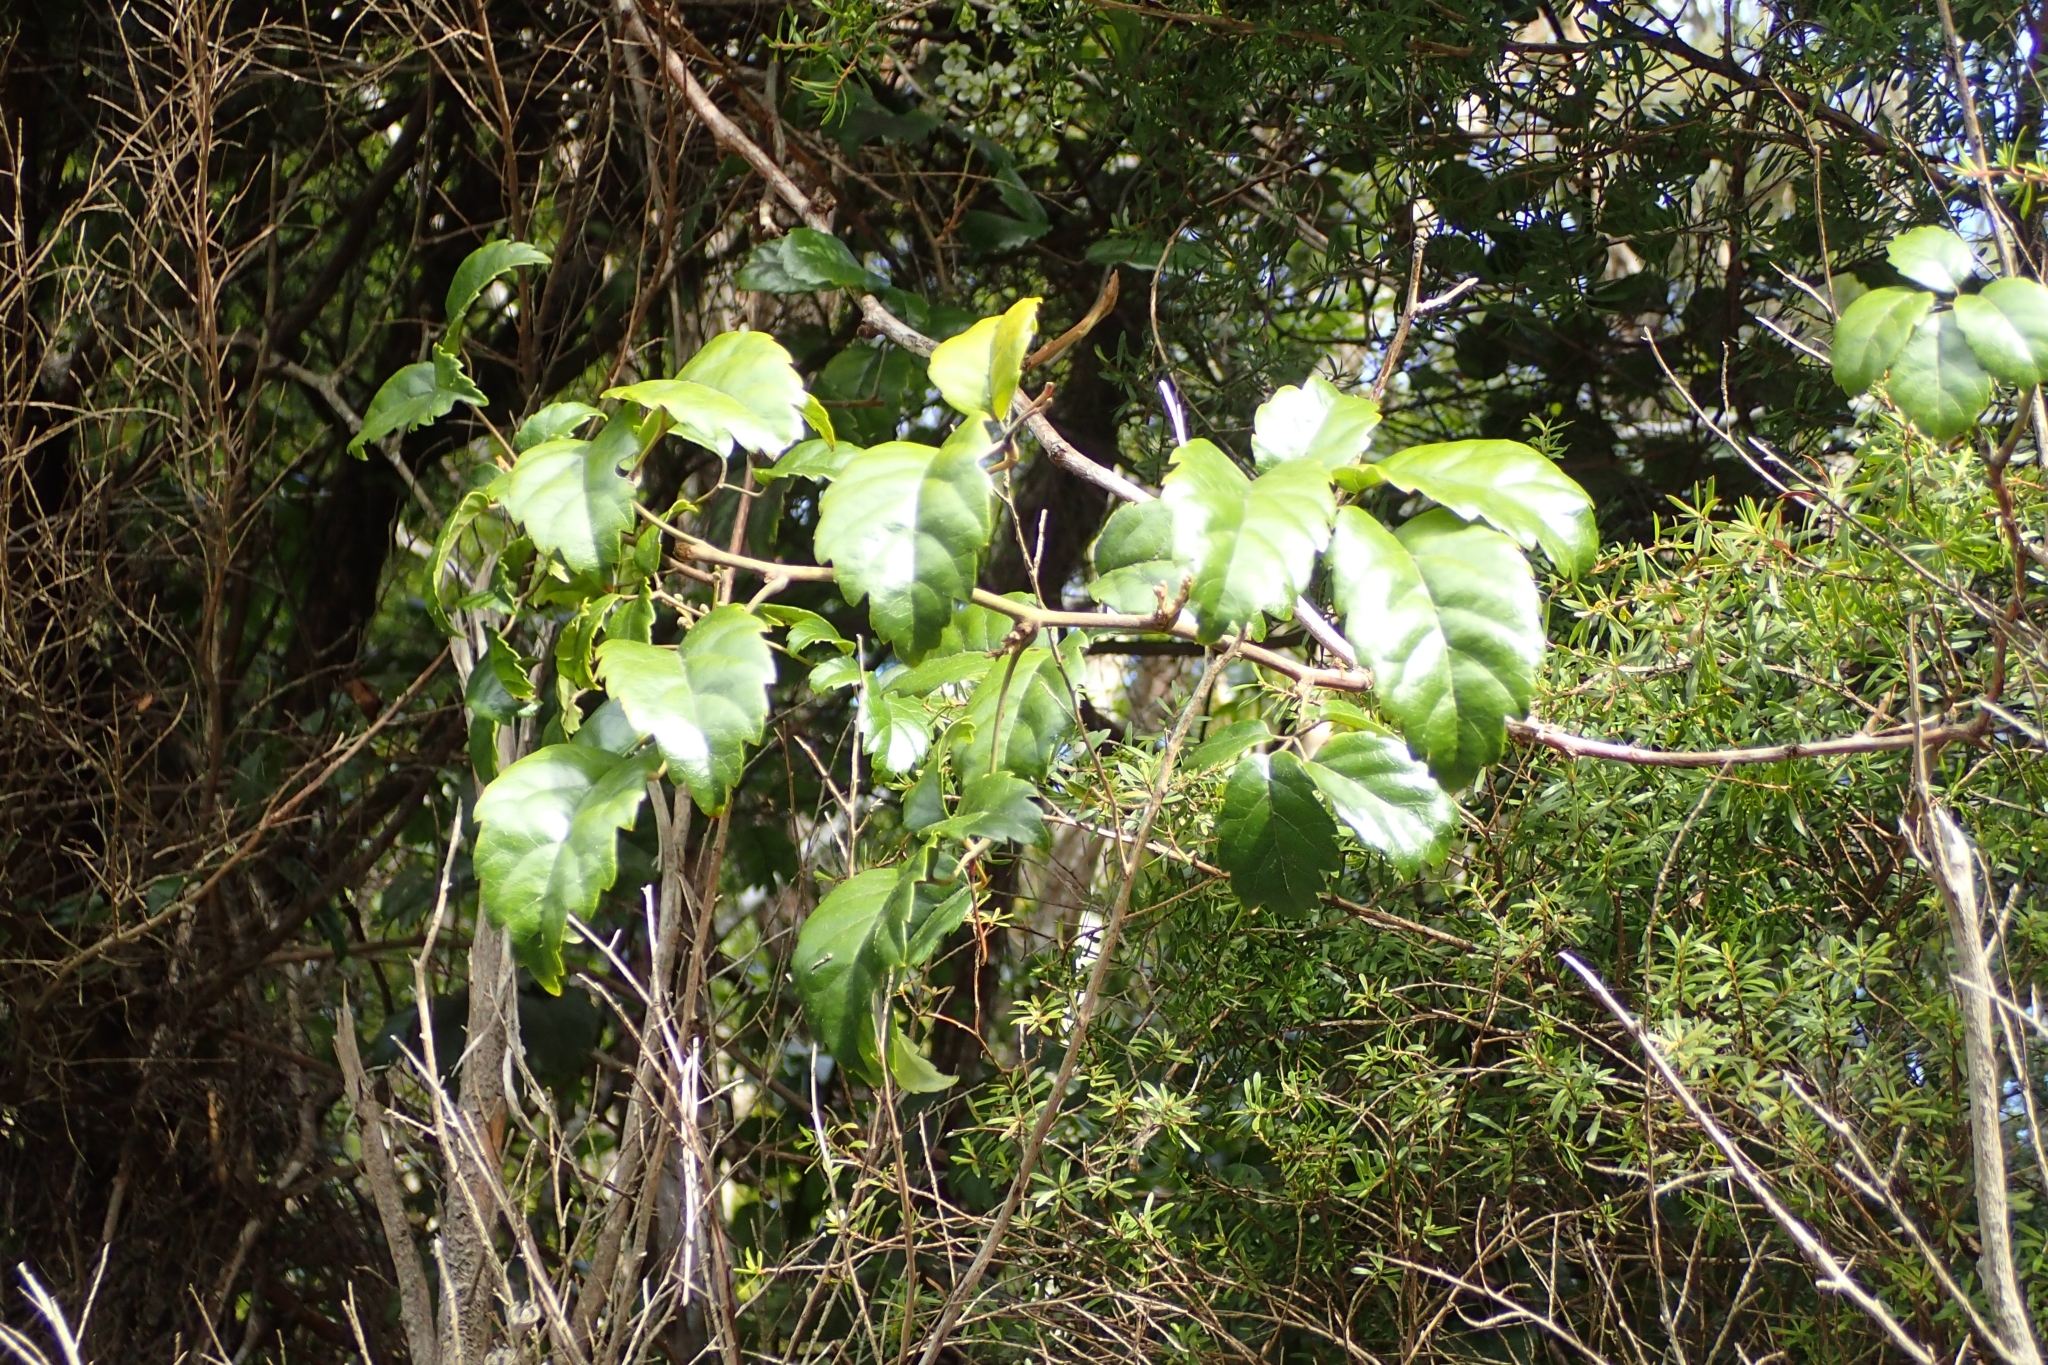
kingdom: Plantae
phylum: Tracheophyta
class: Magnoliopsida
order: Rosales
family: Rosaceae
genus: Rubus
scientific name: Rubus australis
